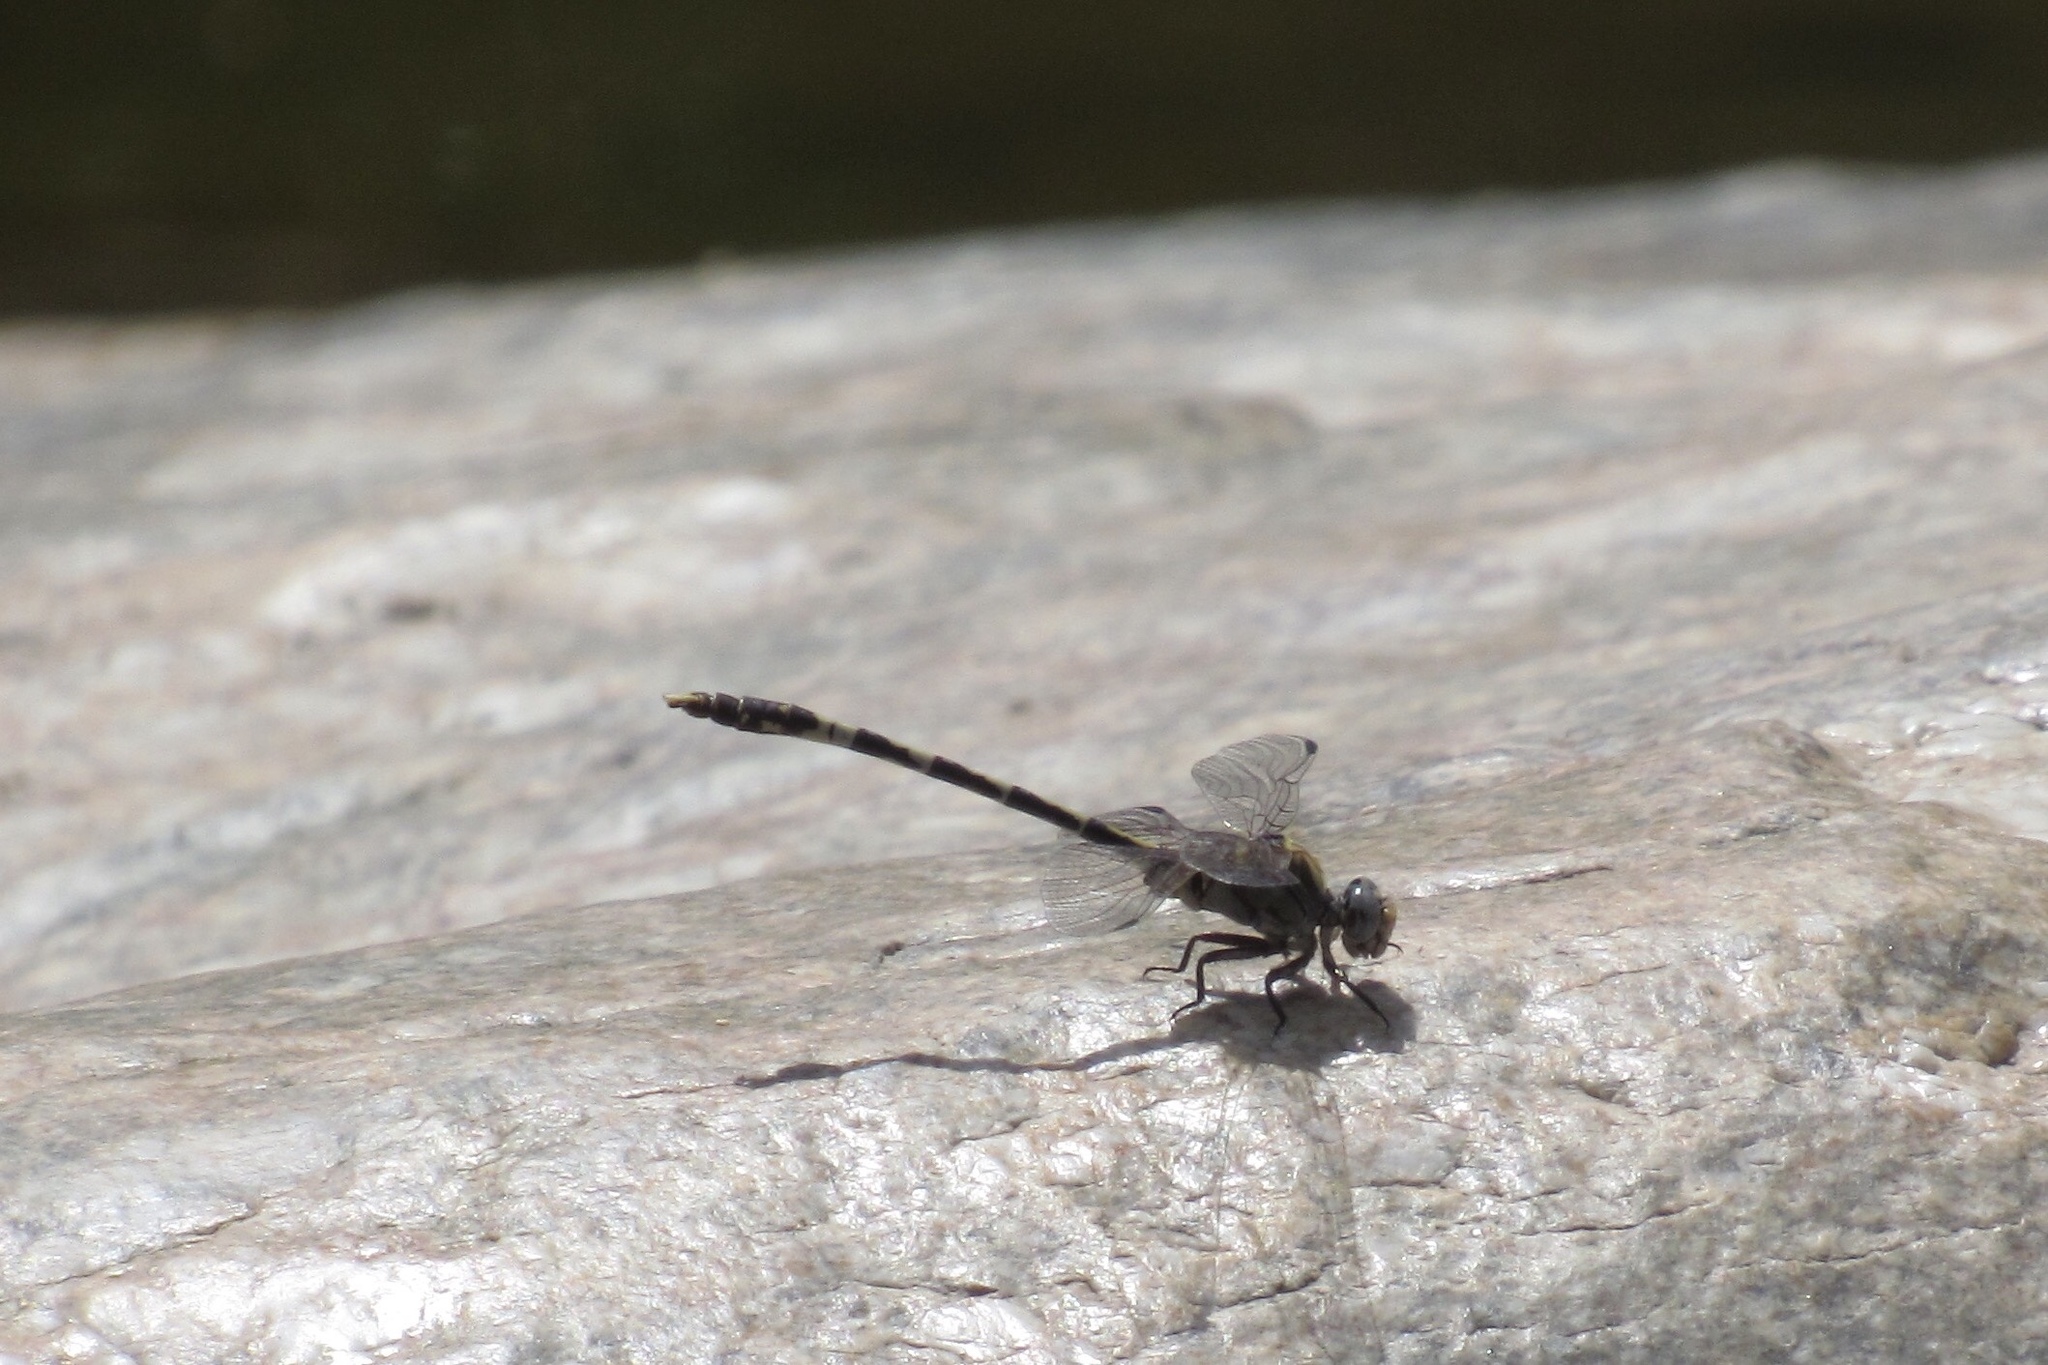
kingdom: Animalia
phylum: Arthropoda
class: Insecta
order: Odonata
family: Gomphidae
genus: Progomphus
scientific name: Progomphus borealis
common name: Gray sanddragon
